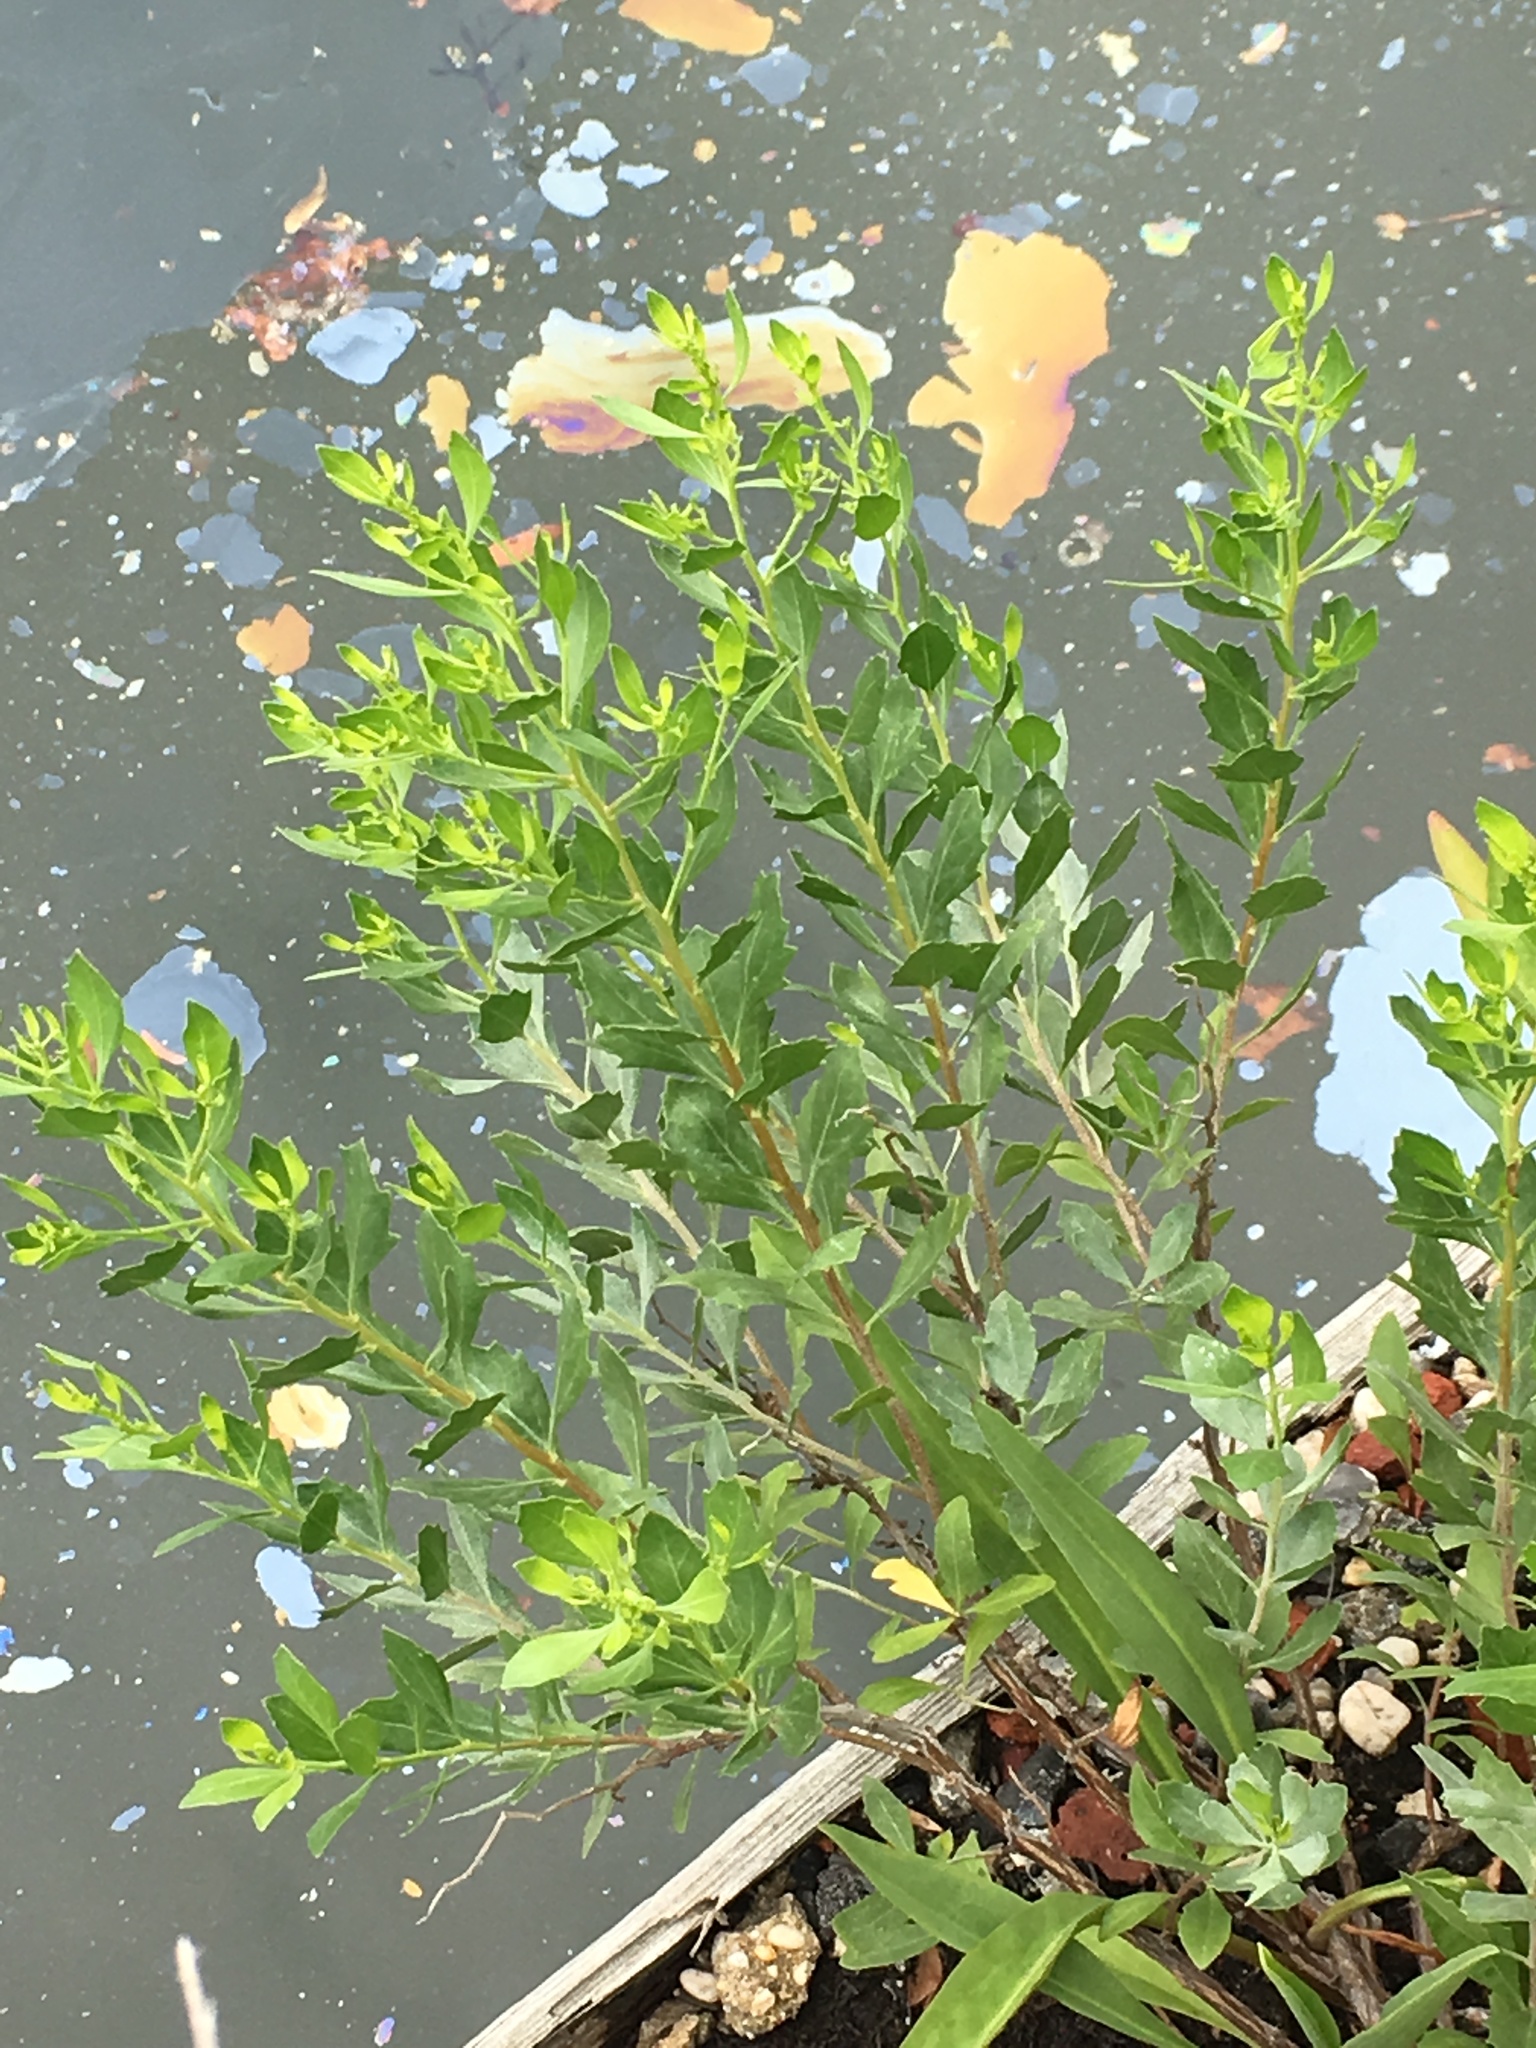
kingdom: Plantae
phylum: Tracheophyta
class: Magnoliopsida
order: Asterales
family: Asteraceae
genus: Baccharis
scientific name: Baccharis halimifolia
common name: Eastern baccharis
